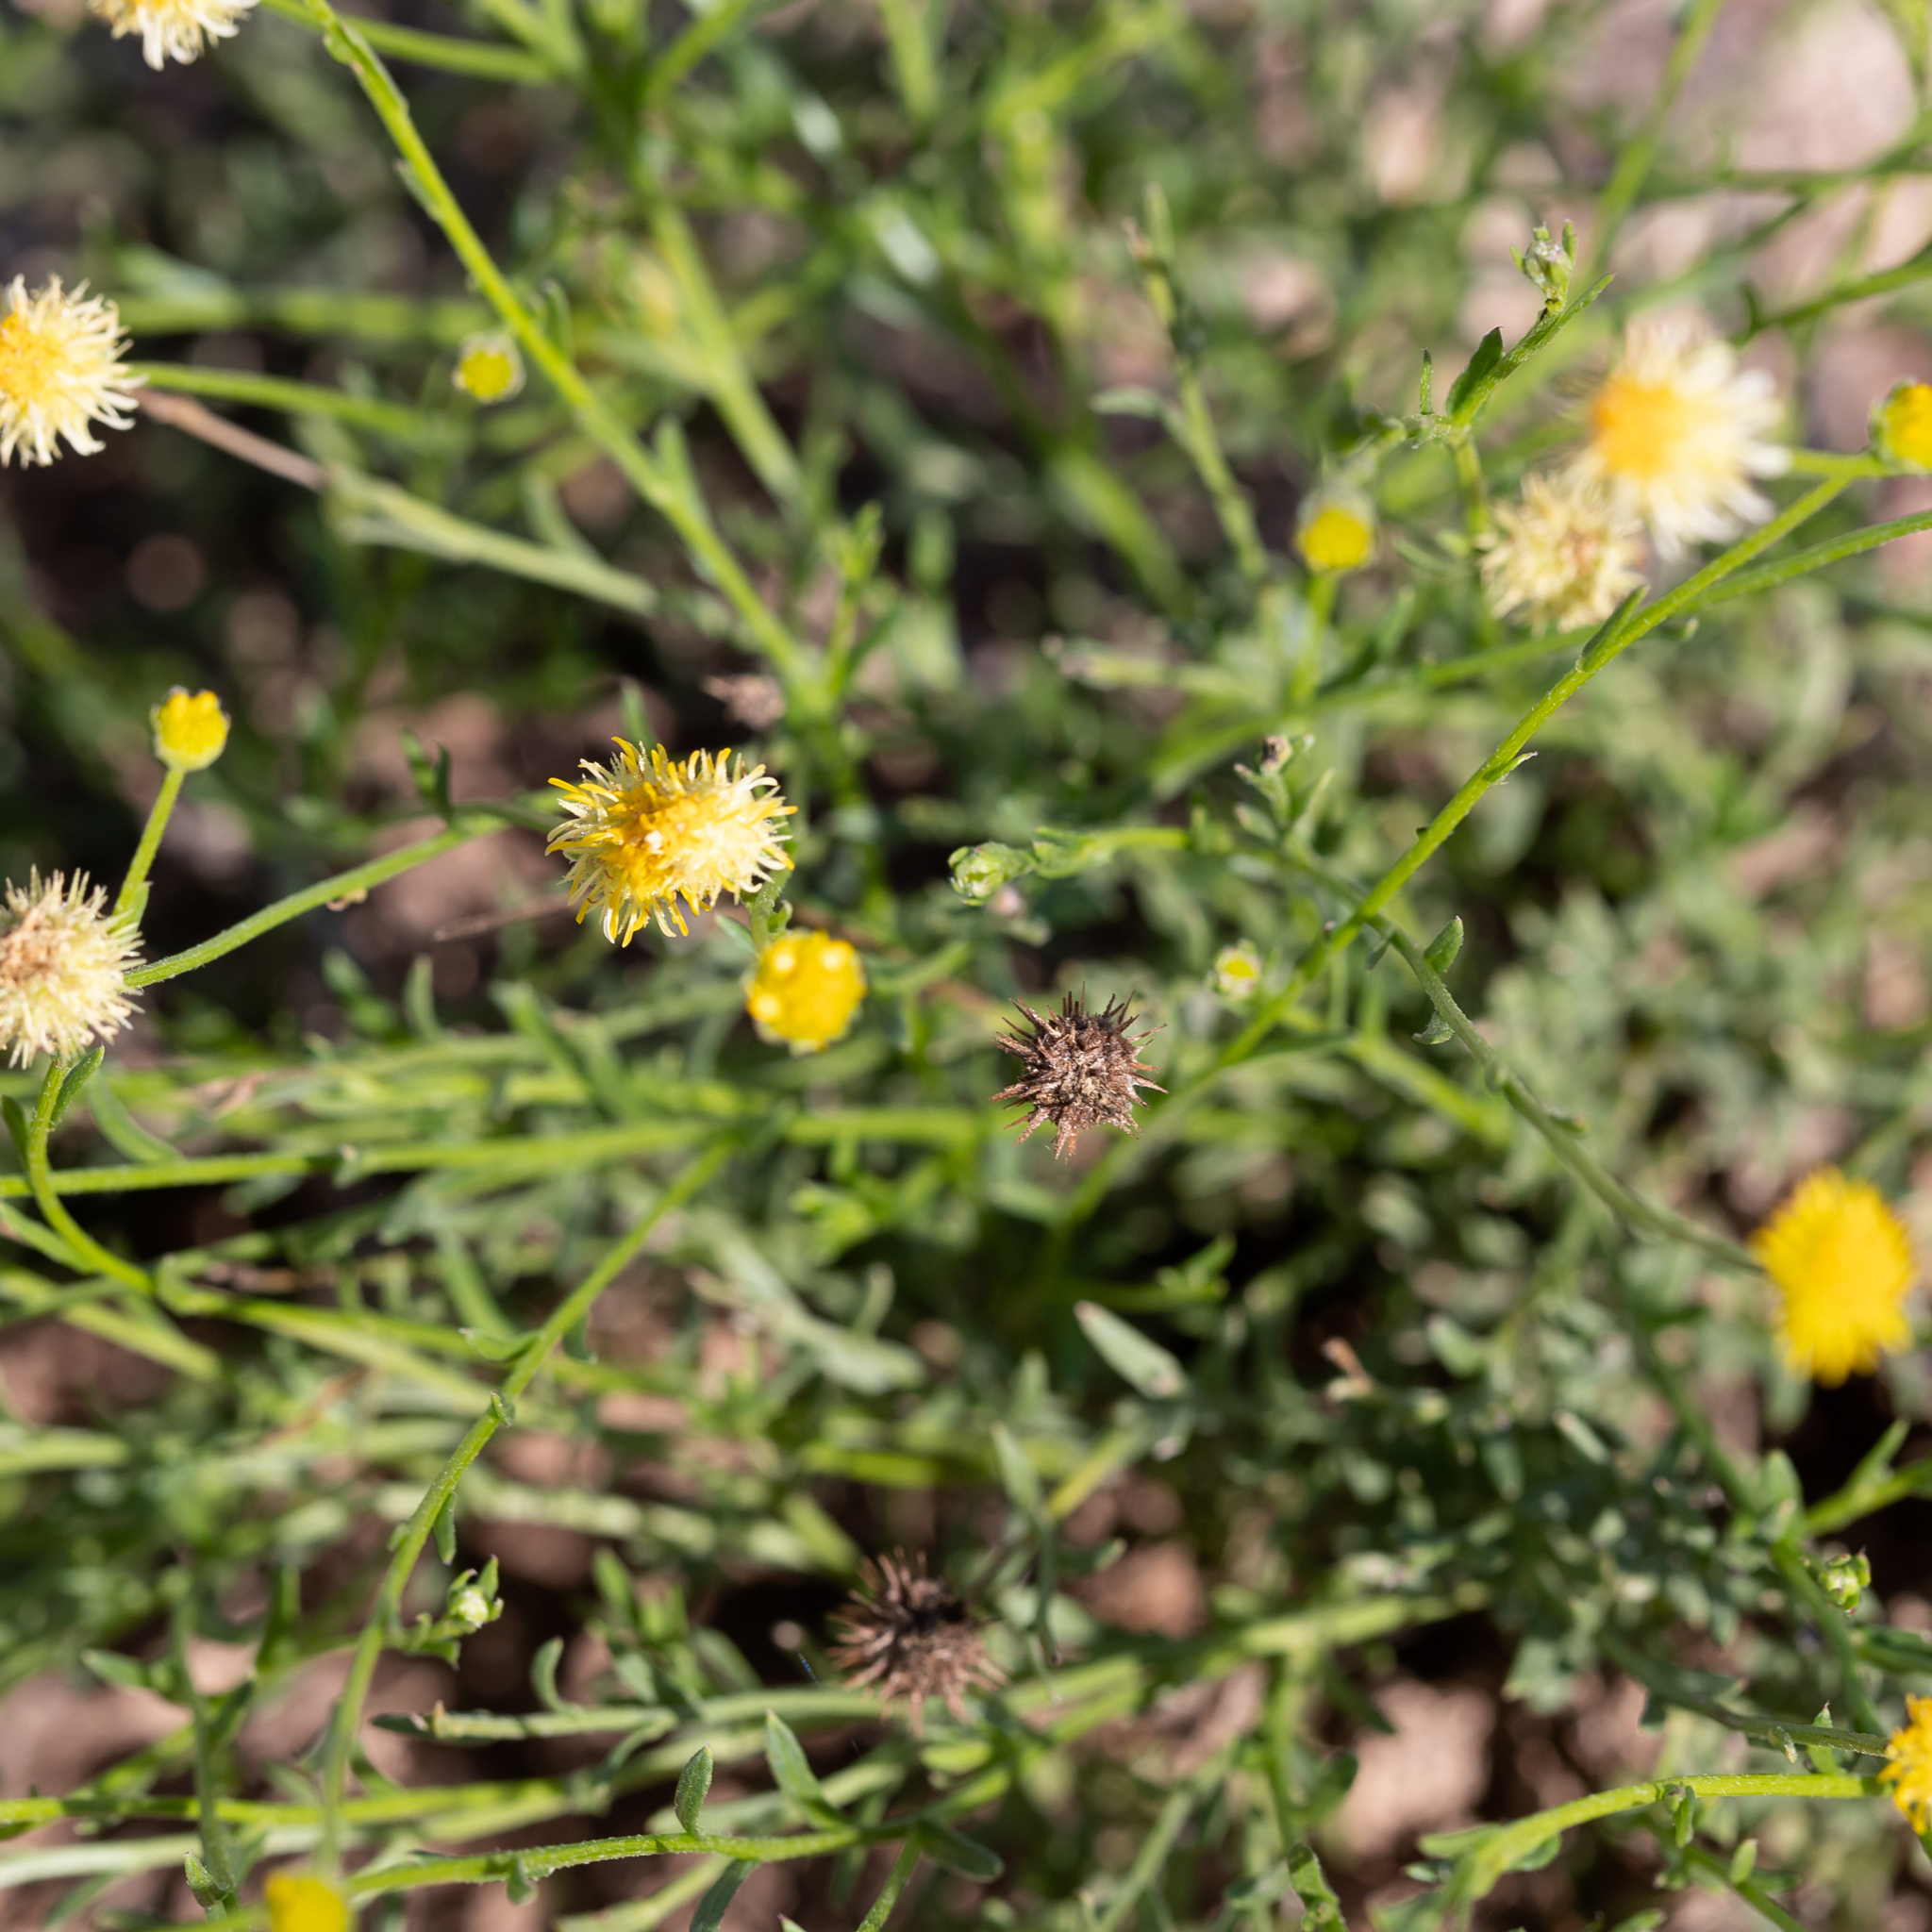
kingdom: Plantae
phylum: Tracheophyta
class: Magnoliopsida
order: Asterales
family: Asteraceae
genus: Calotis
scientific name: Calotis lappulacea
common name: Bur daisy
